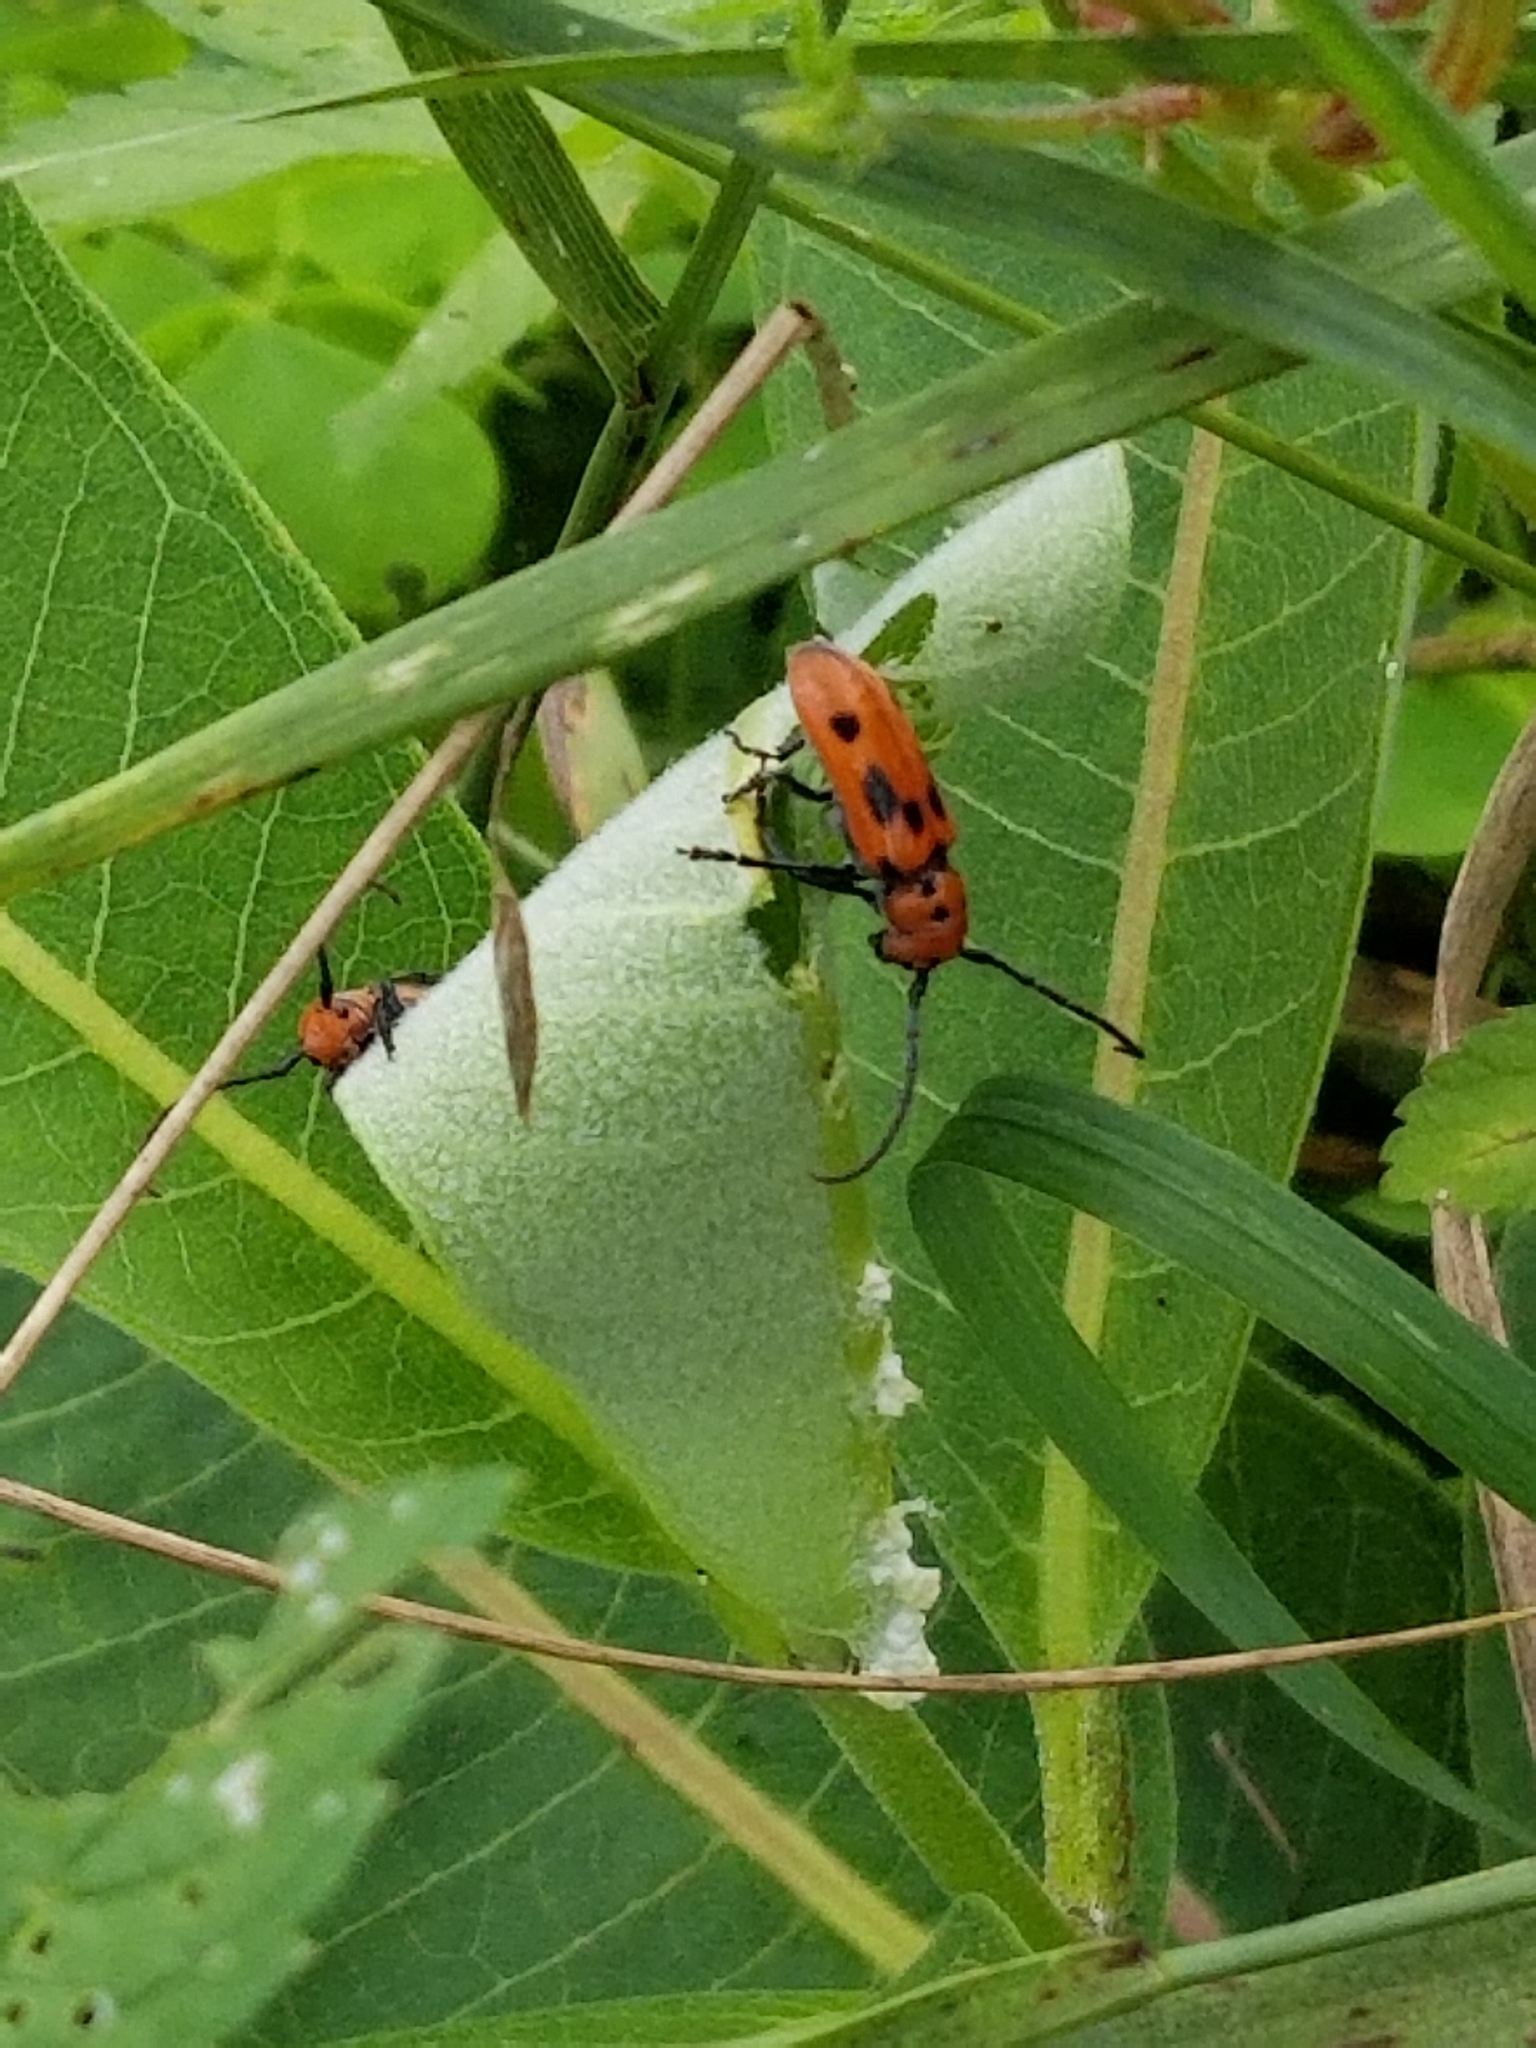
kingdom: Animalia
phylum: Arthropoda
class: Insecta
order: Coleoptera
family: Cerambycidae
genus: Tetraopes
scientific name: Tetraopes tetrophthalmus
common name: Red milkweed beetle
